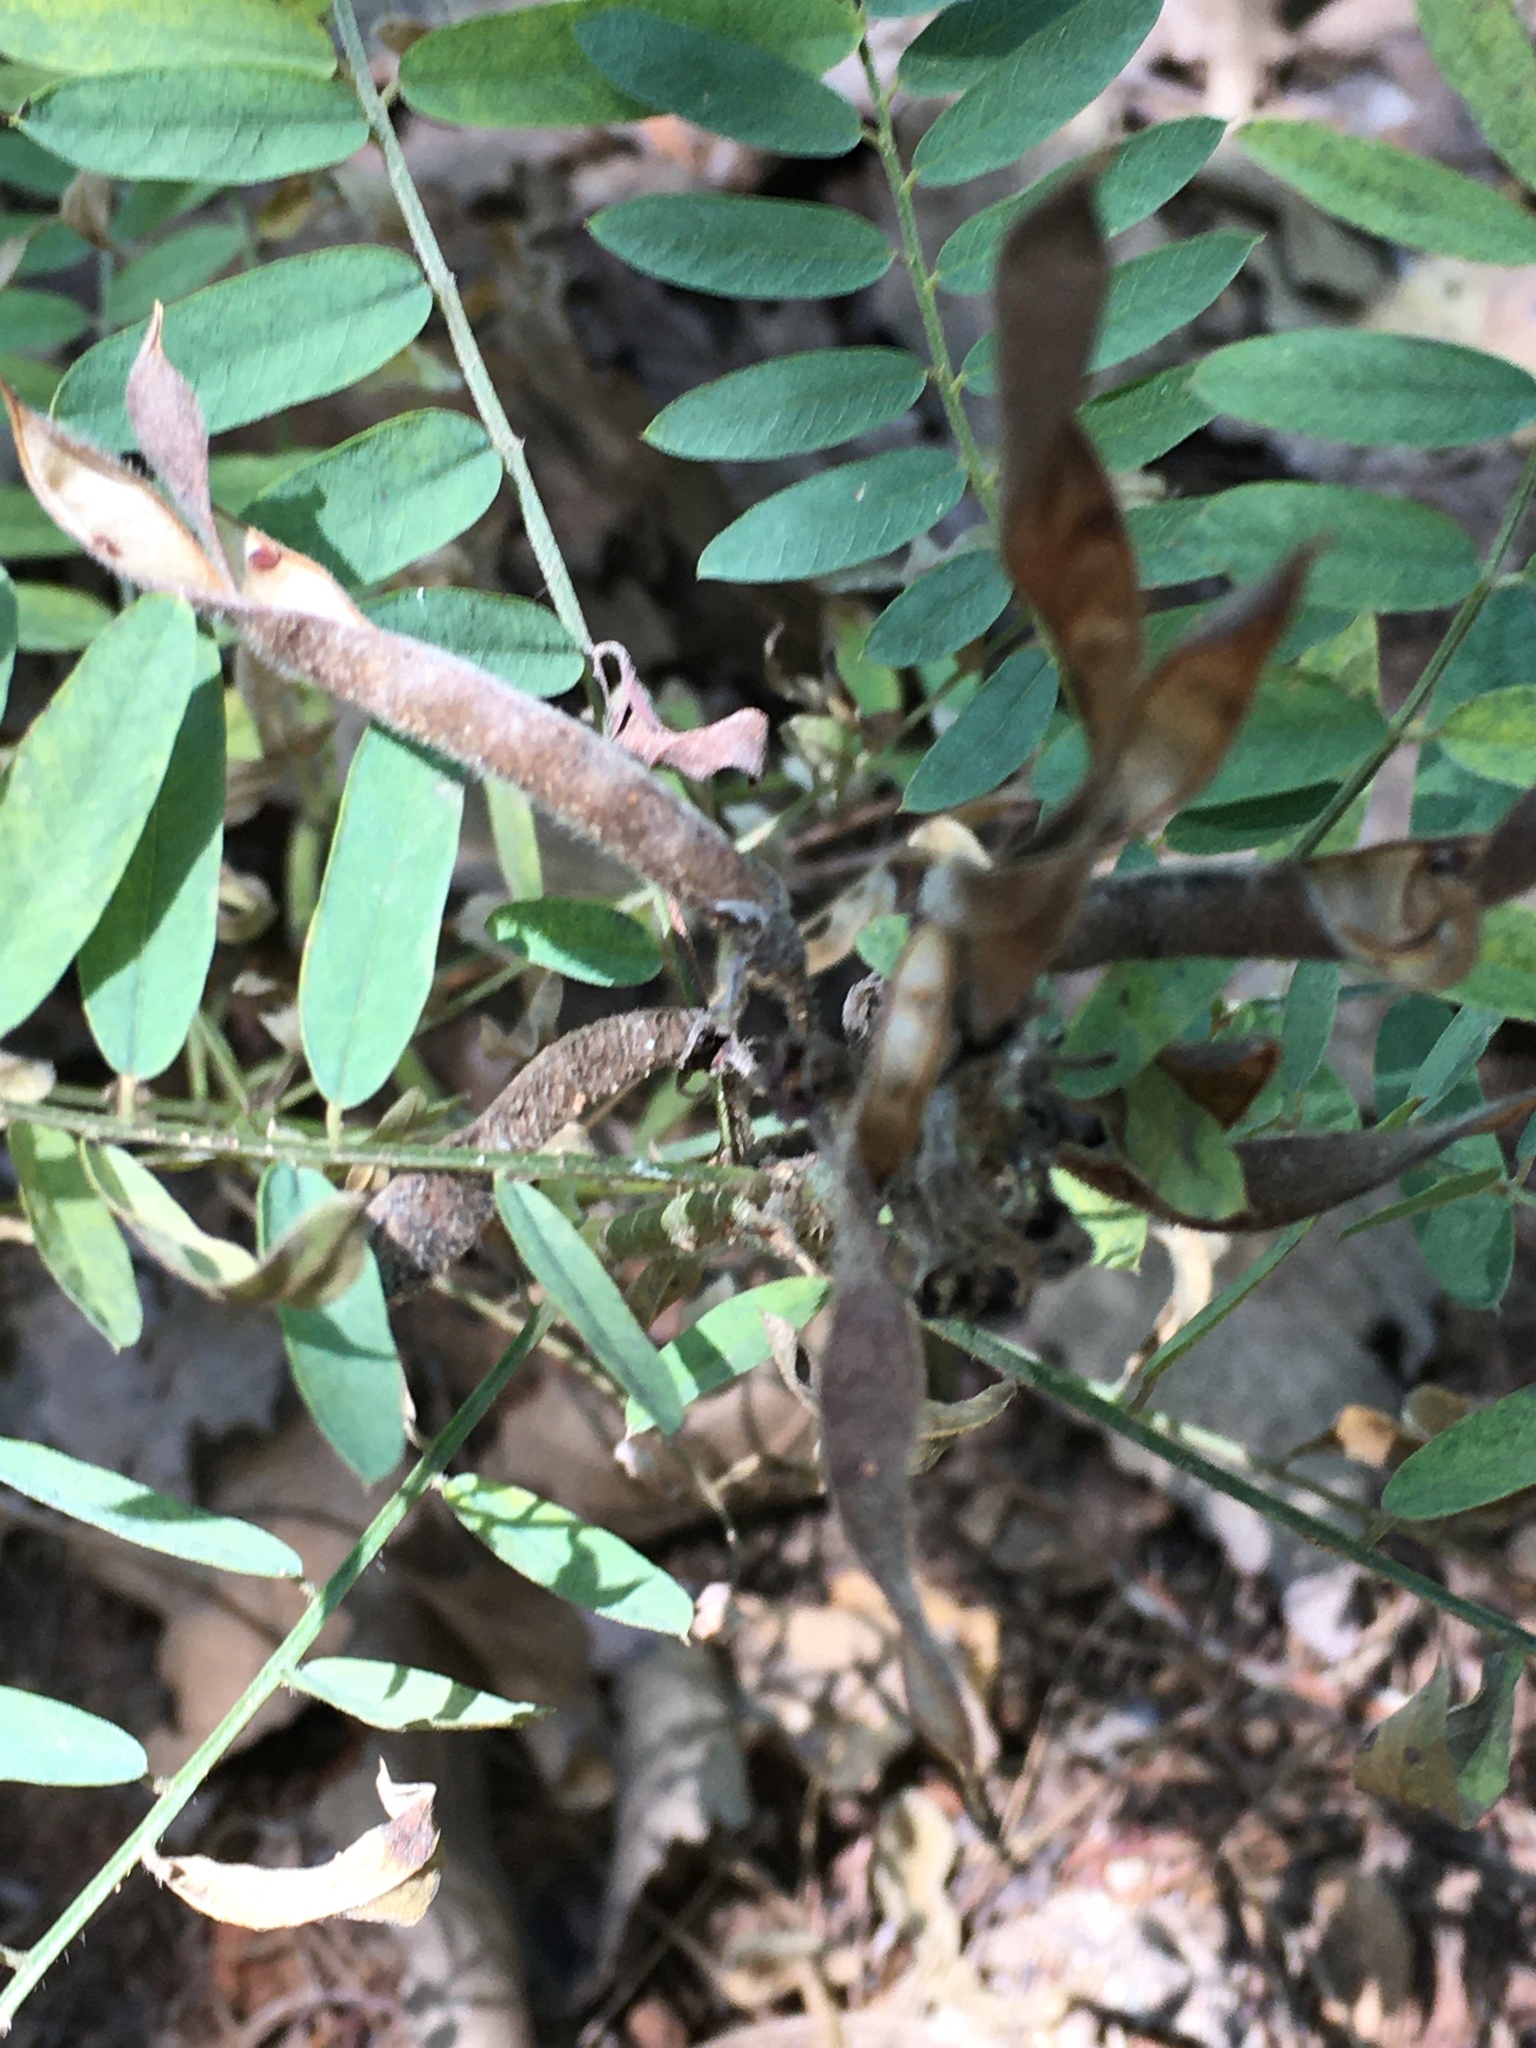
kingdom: Plantae
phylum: Tracheophyta
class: Magnoliopsida
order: Fabales
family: Fabaceae
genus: Tephrosia
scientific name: Tephrosia virginiana
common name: Rabbit-pea
